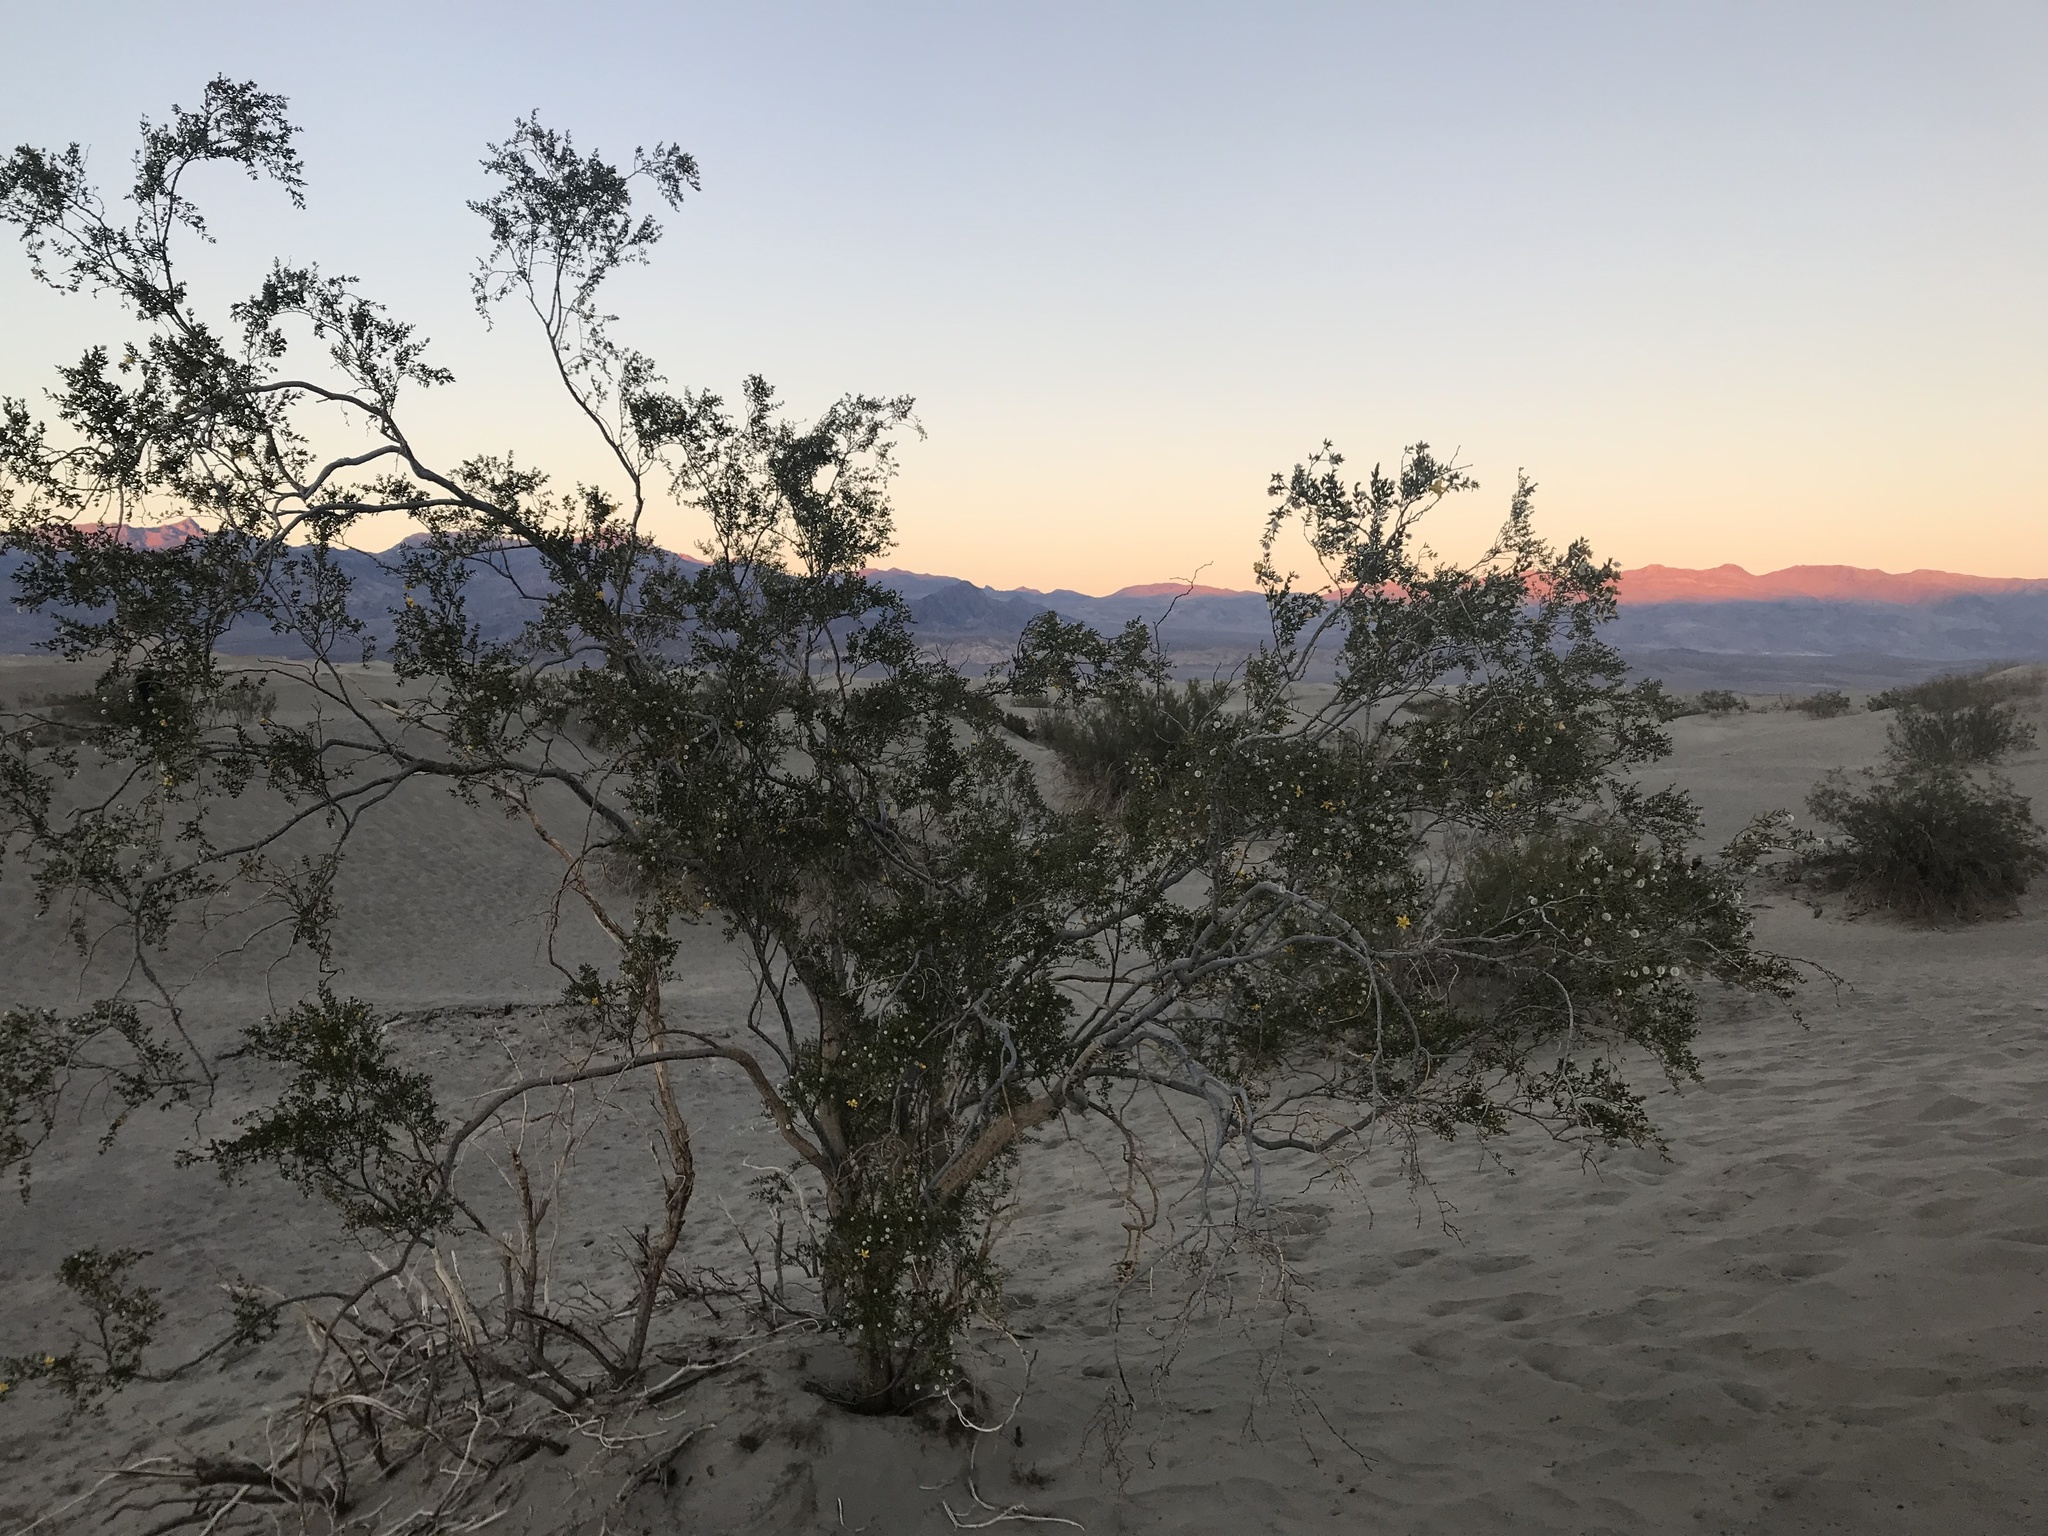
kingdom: Plantae
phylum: Tracheophyta
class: Magnoliopsida
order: Zygophyllales
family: Zygophyllaceae
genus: Larrea
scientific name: Larrea tridentata
